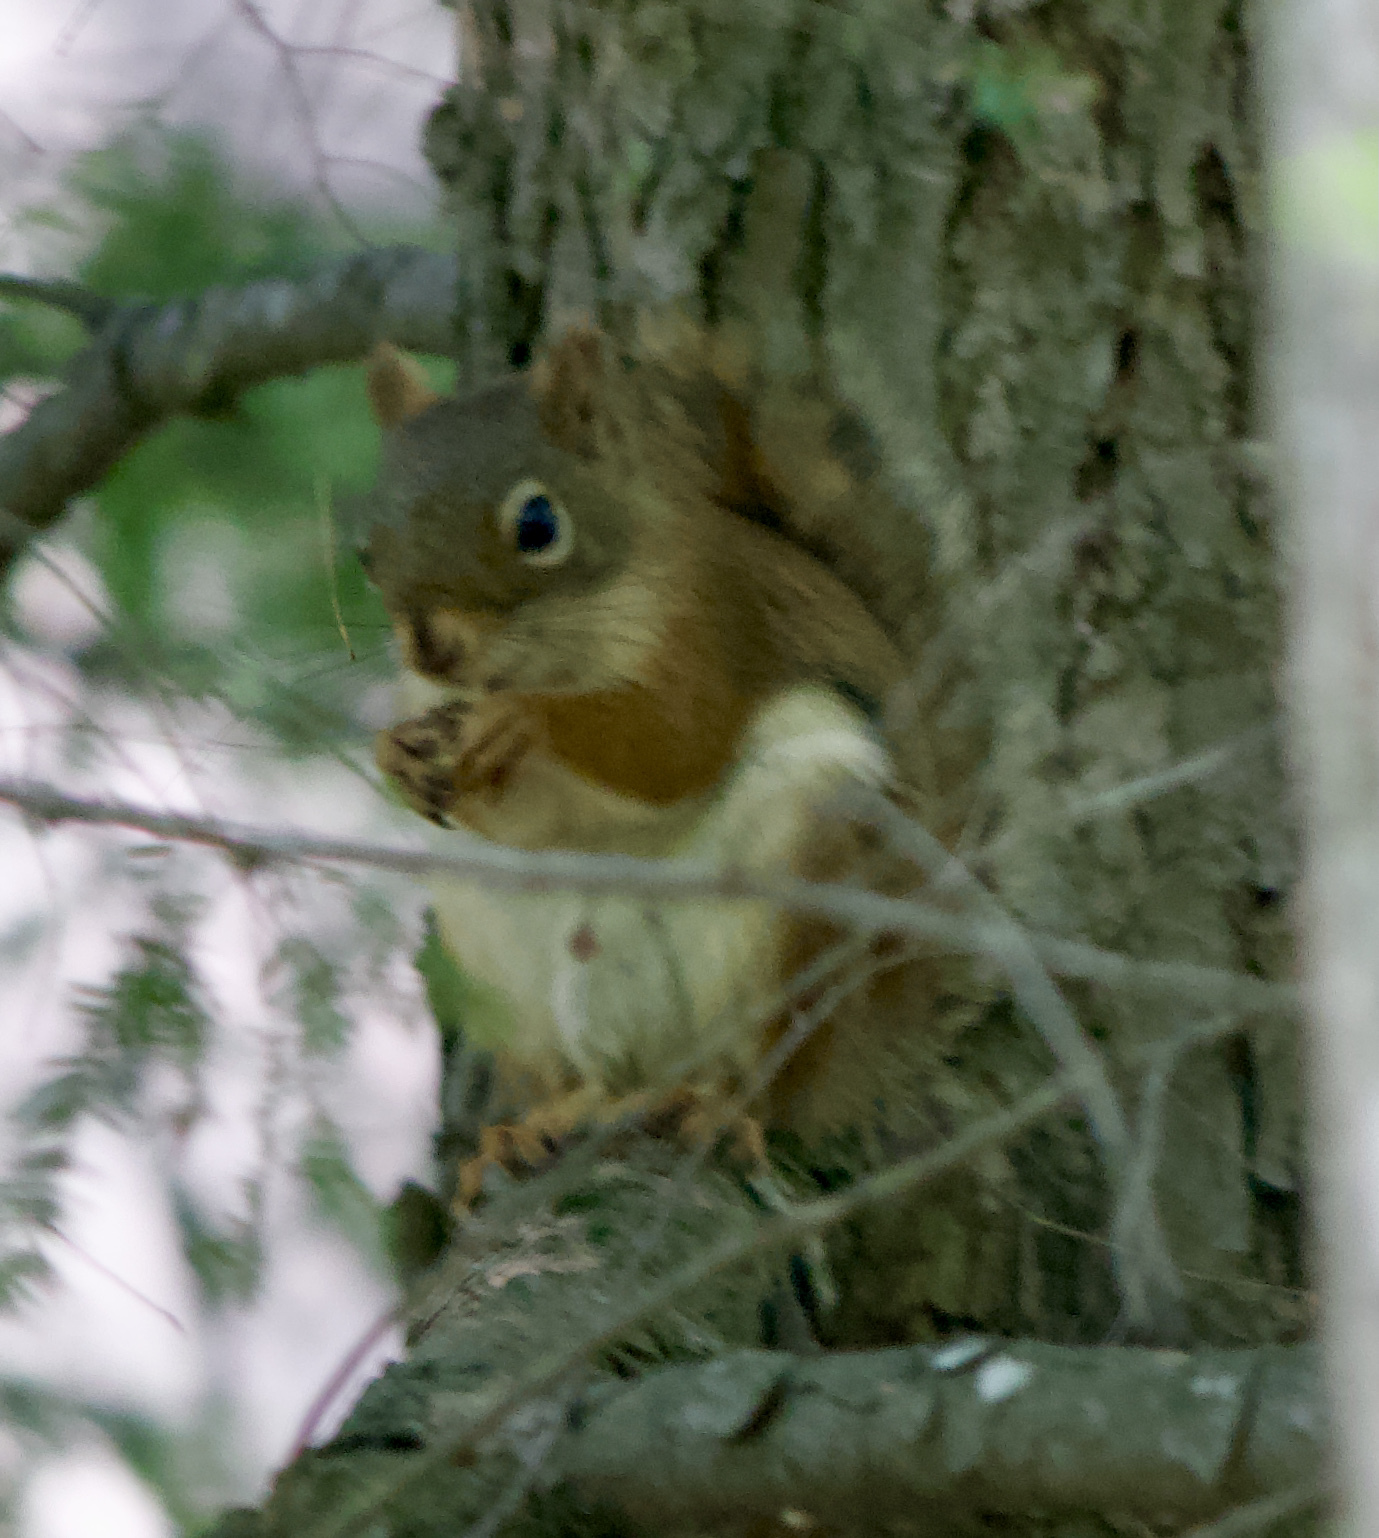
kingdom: Animalia
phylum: Chordata
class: Mammalia
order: Rodentia
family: Sciuridae
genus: Tamiasciurus
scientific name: Tamiasciurus hudsonicus
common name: Red squirrel
